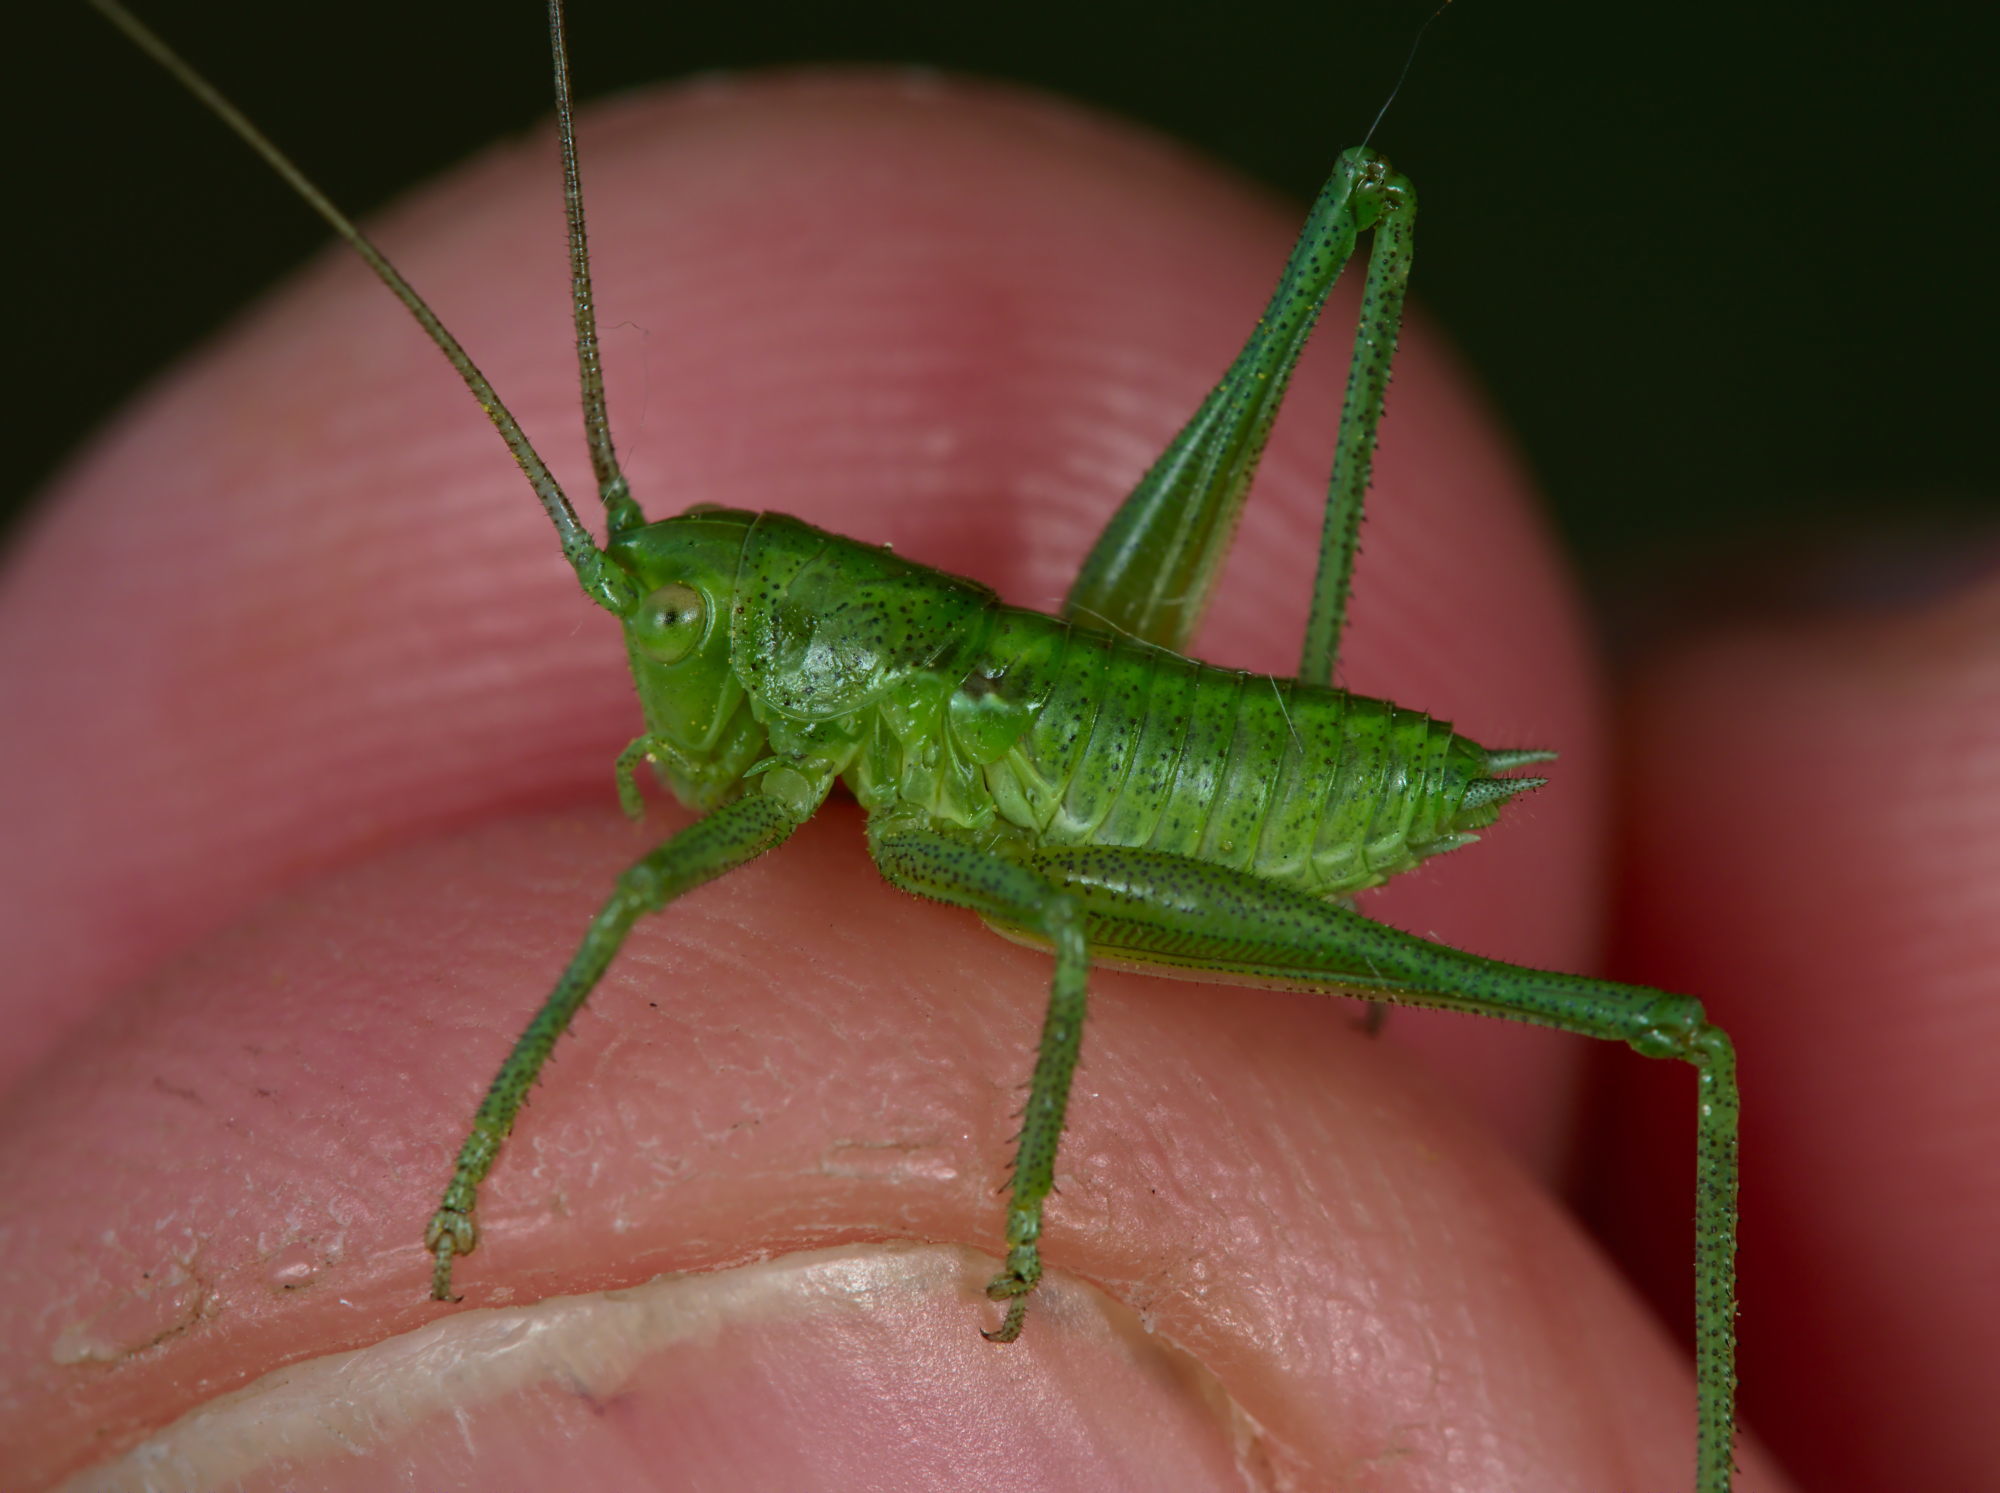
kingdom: Animalia
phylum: Arthropoda
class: Insecta
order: Orthoptera
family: Tettigoniidae
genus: Tettigonia
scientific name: Tettigonia viridissima
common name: Great green bush-cricket
